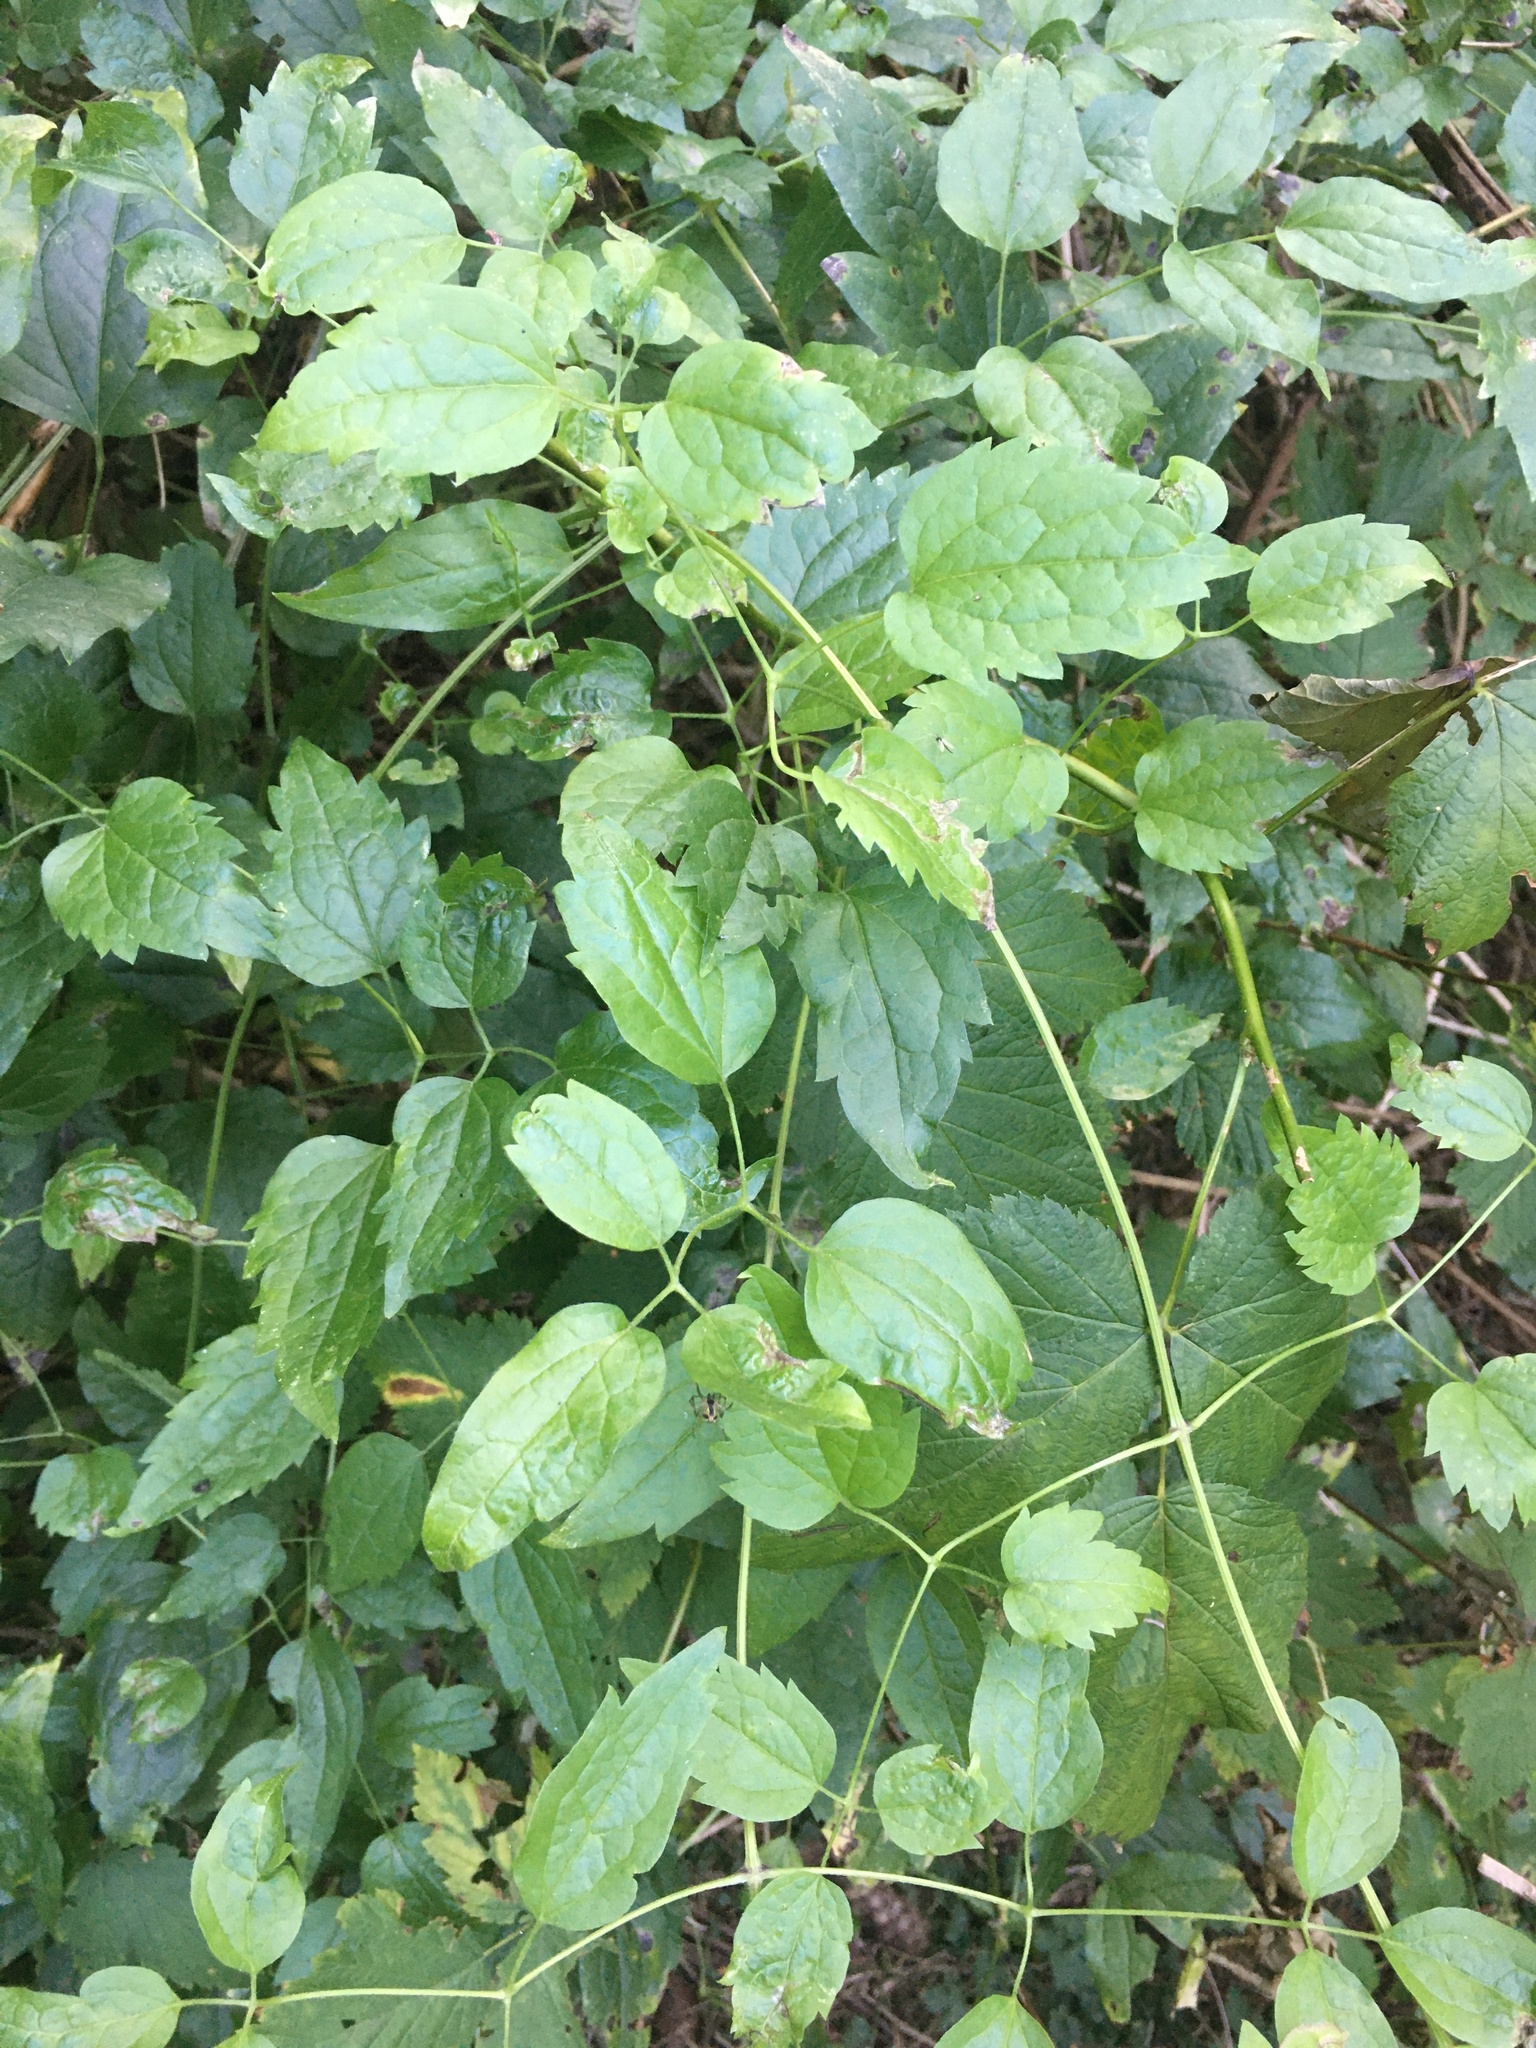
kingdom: Plantae
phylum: Tracheophyta
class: Magnoliopsida
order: Ranunculales
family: Ranunculaceae
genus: Clematis
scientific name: Clematis vitalba
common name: Evergreen clematis
